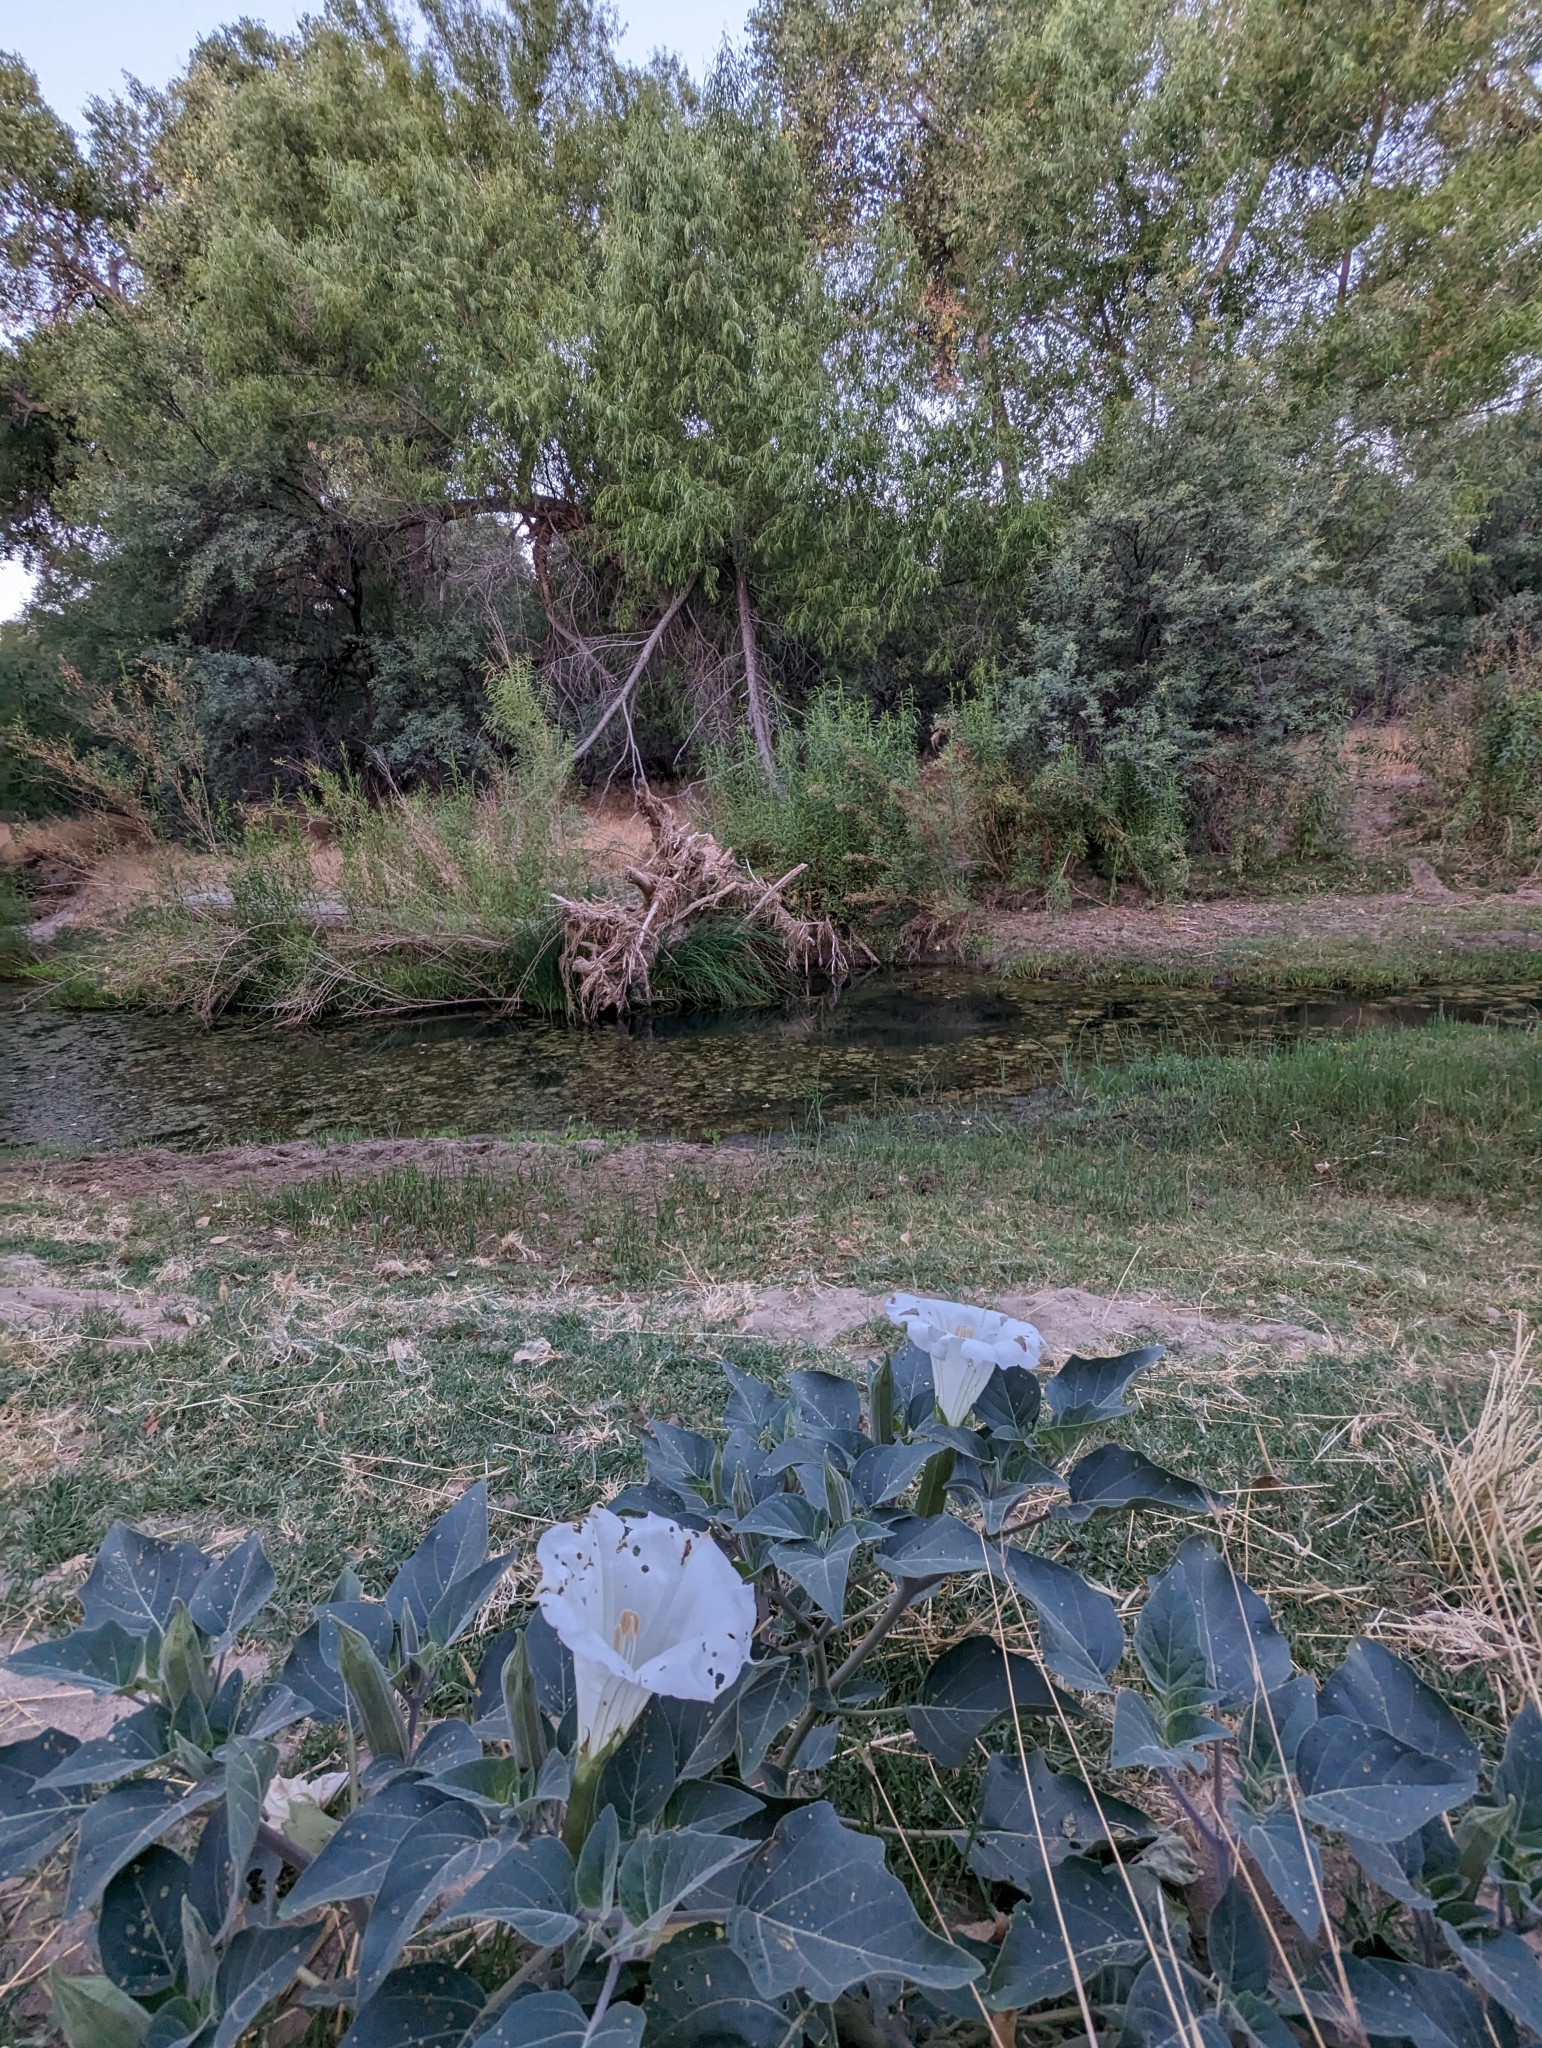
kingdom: Plantae
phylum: Tracheophyta
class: Magnoliopsida
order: Solanales
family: Solanaceae
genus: Datura
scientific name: Datura wrightii
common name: Sacred thorn-apple
